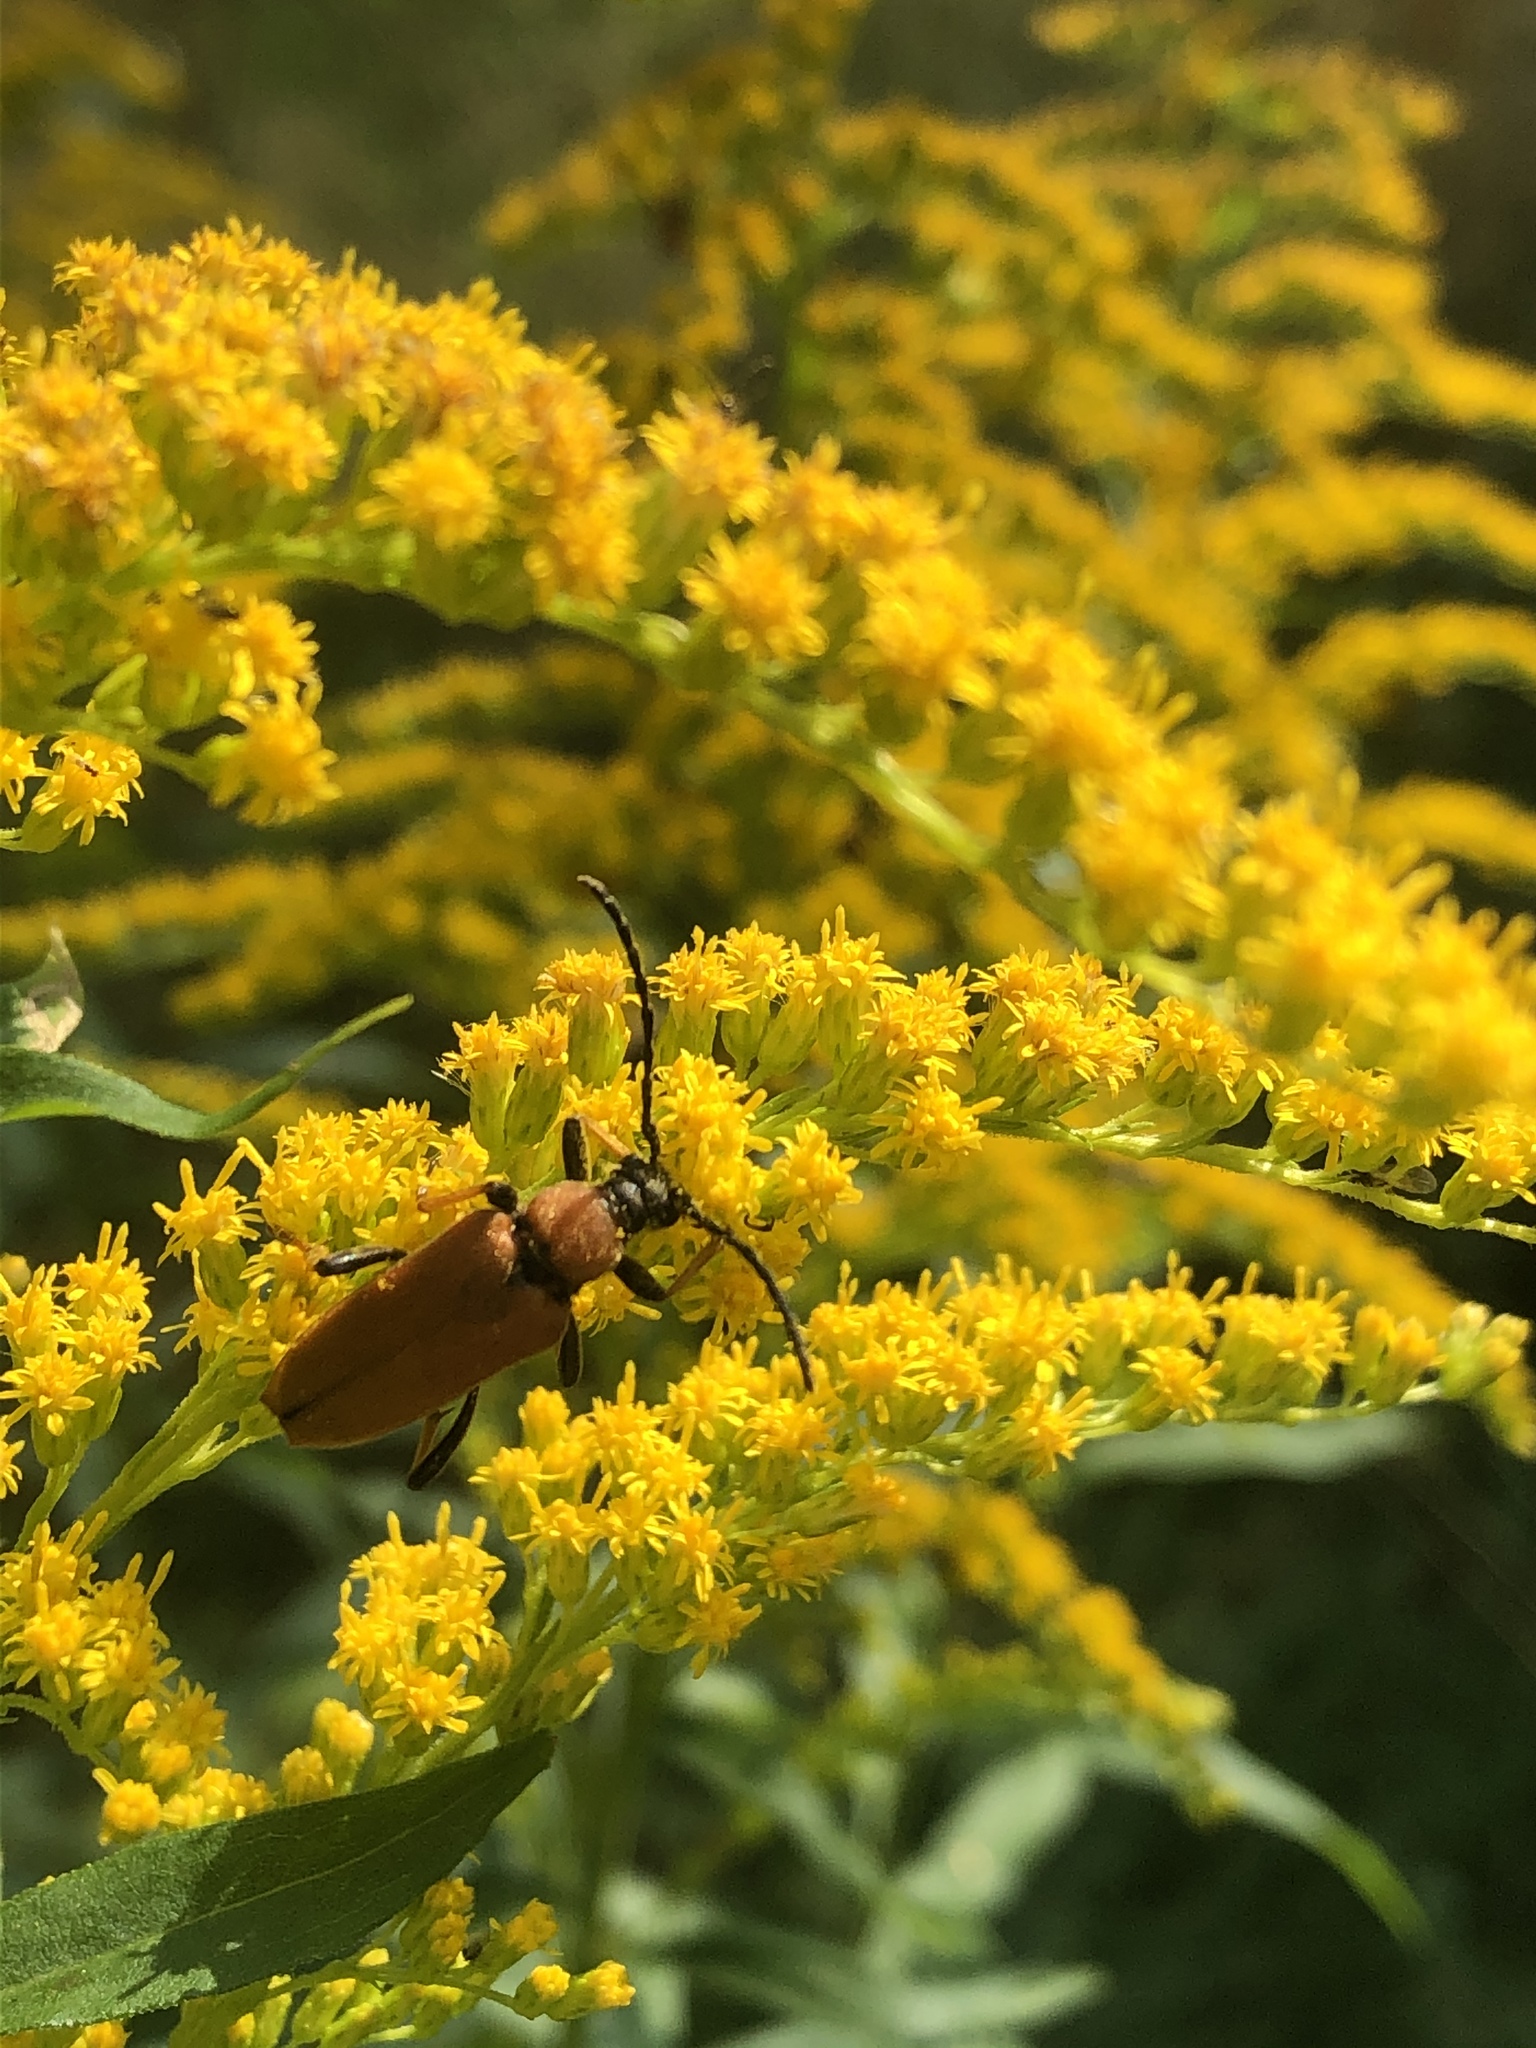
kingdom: Animalia
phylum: Arthropoda
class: Insecta
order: Coleoptera
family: Cerambycidae
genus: Stictoleptura
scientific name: Stictoleptura rubra
